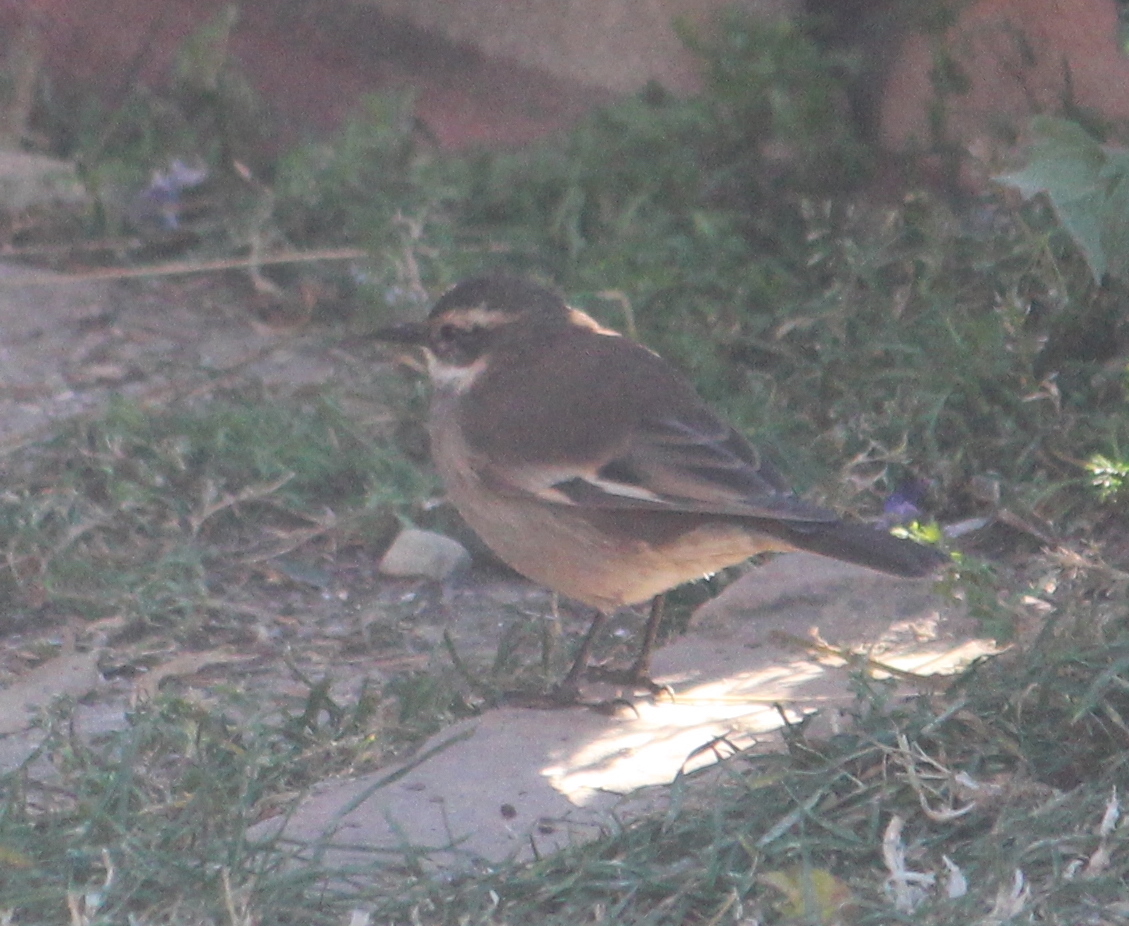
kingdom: Animalia
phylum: Chordata
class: Aves
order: Passeriformes
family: Furnariidae
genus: Cinclodes
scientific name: Cinclodes fuscus
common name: Buff-winged cinclodes
